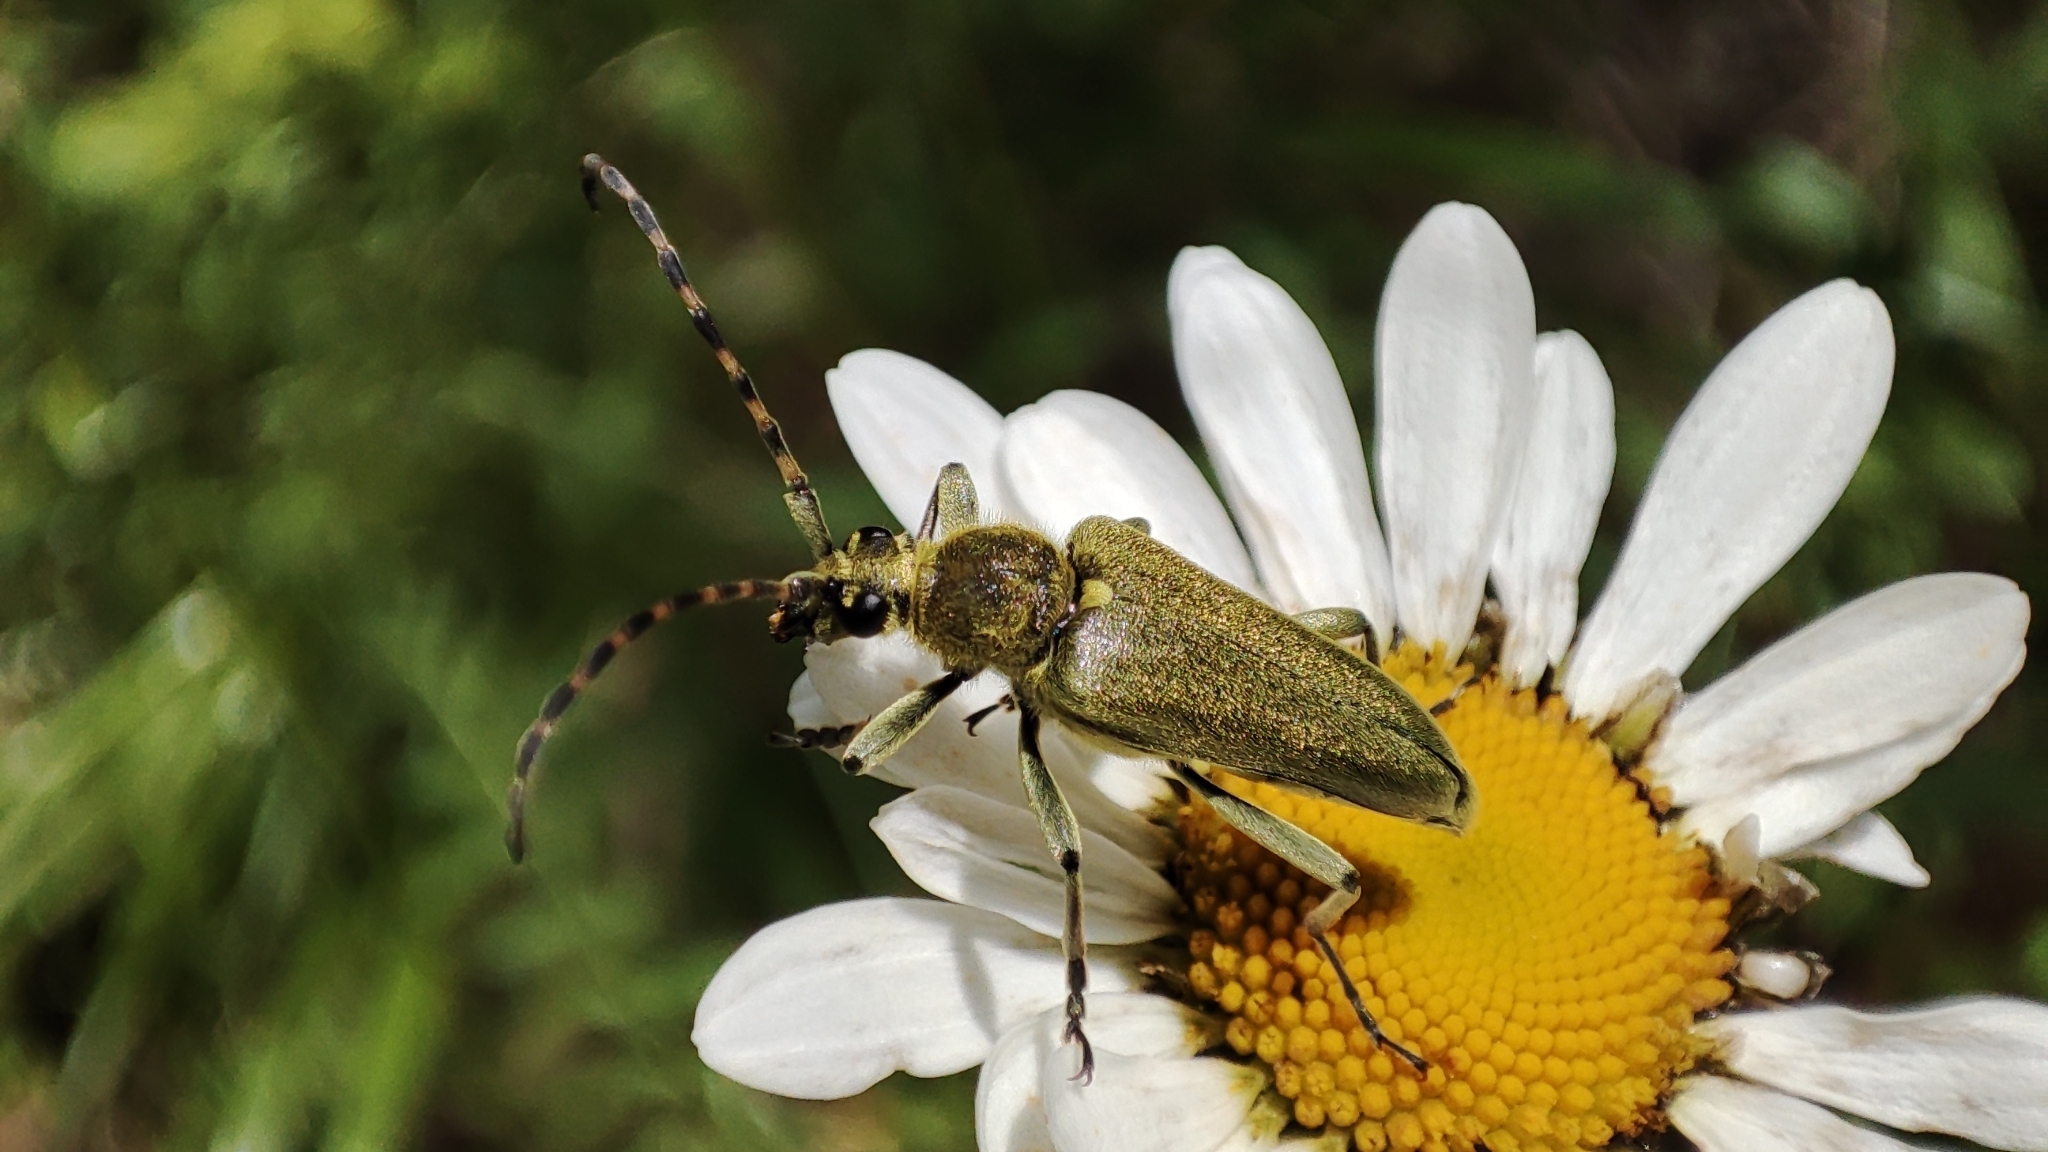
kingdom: Animalia
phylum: Arthropoda
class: Insecta
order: Coleoptera
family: Cerambycidae
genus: Lepturobosca
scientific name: Lepturobosca virens
